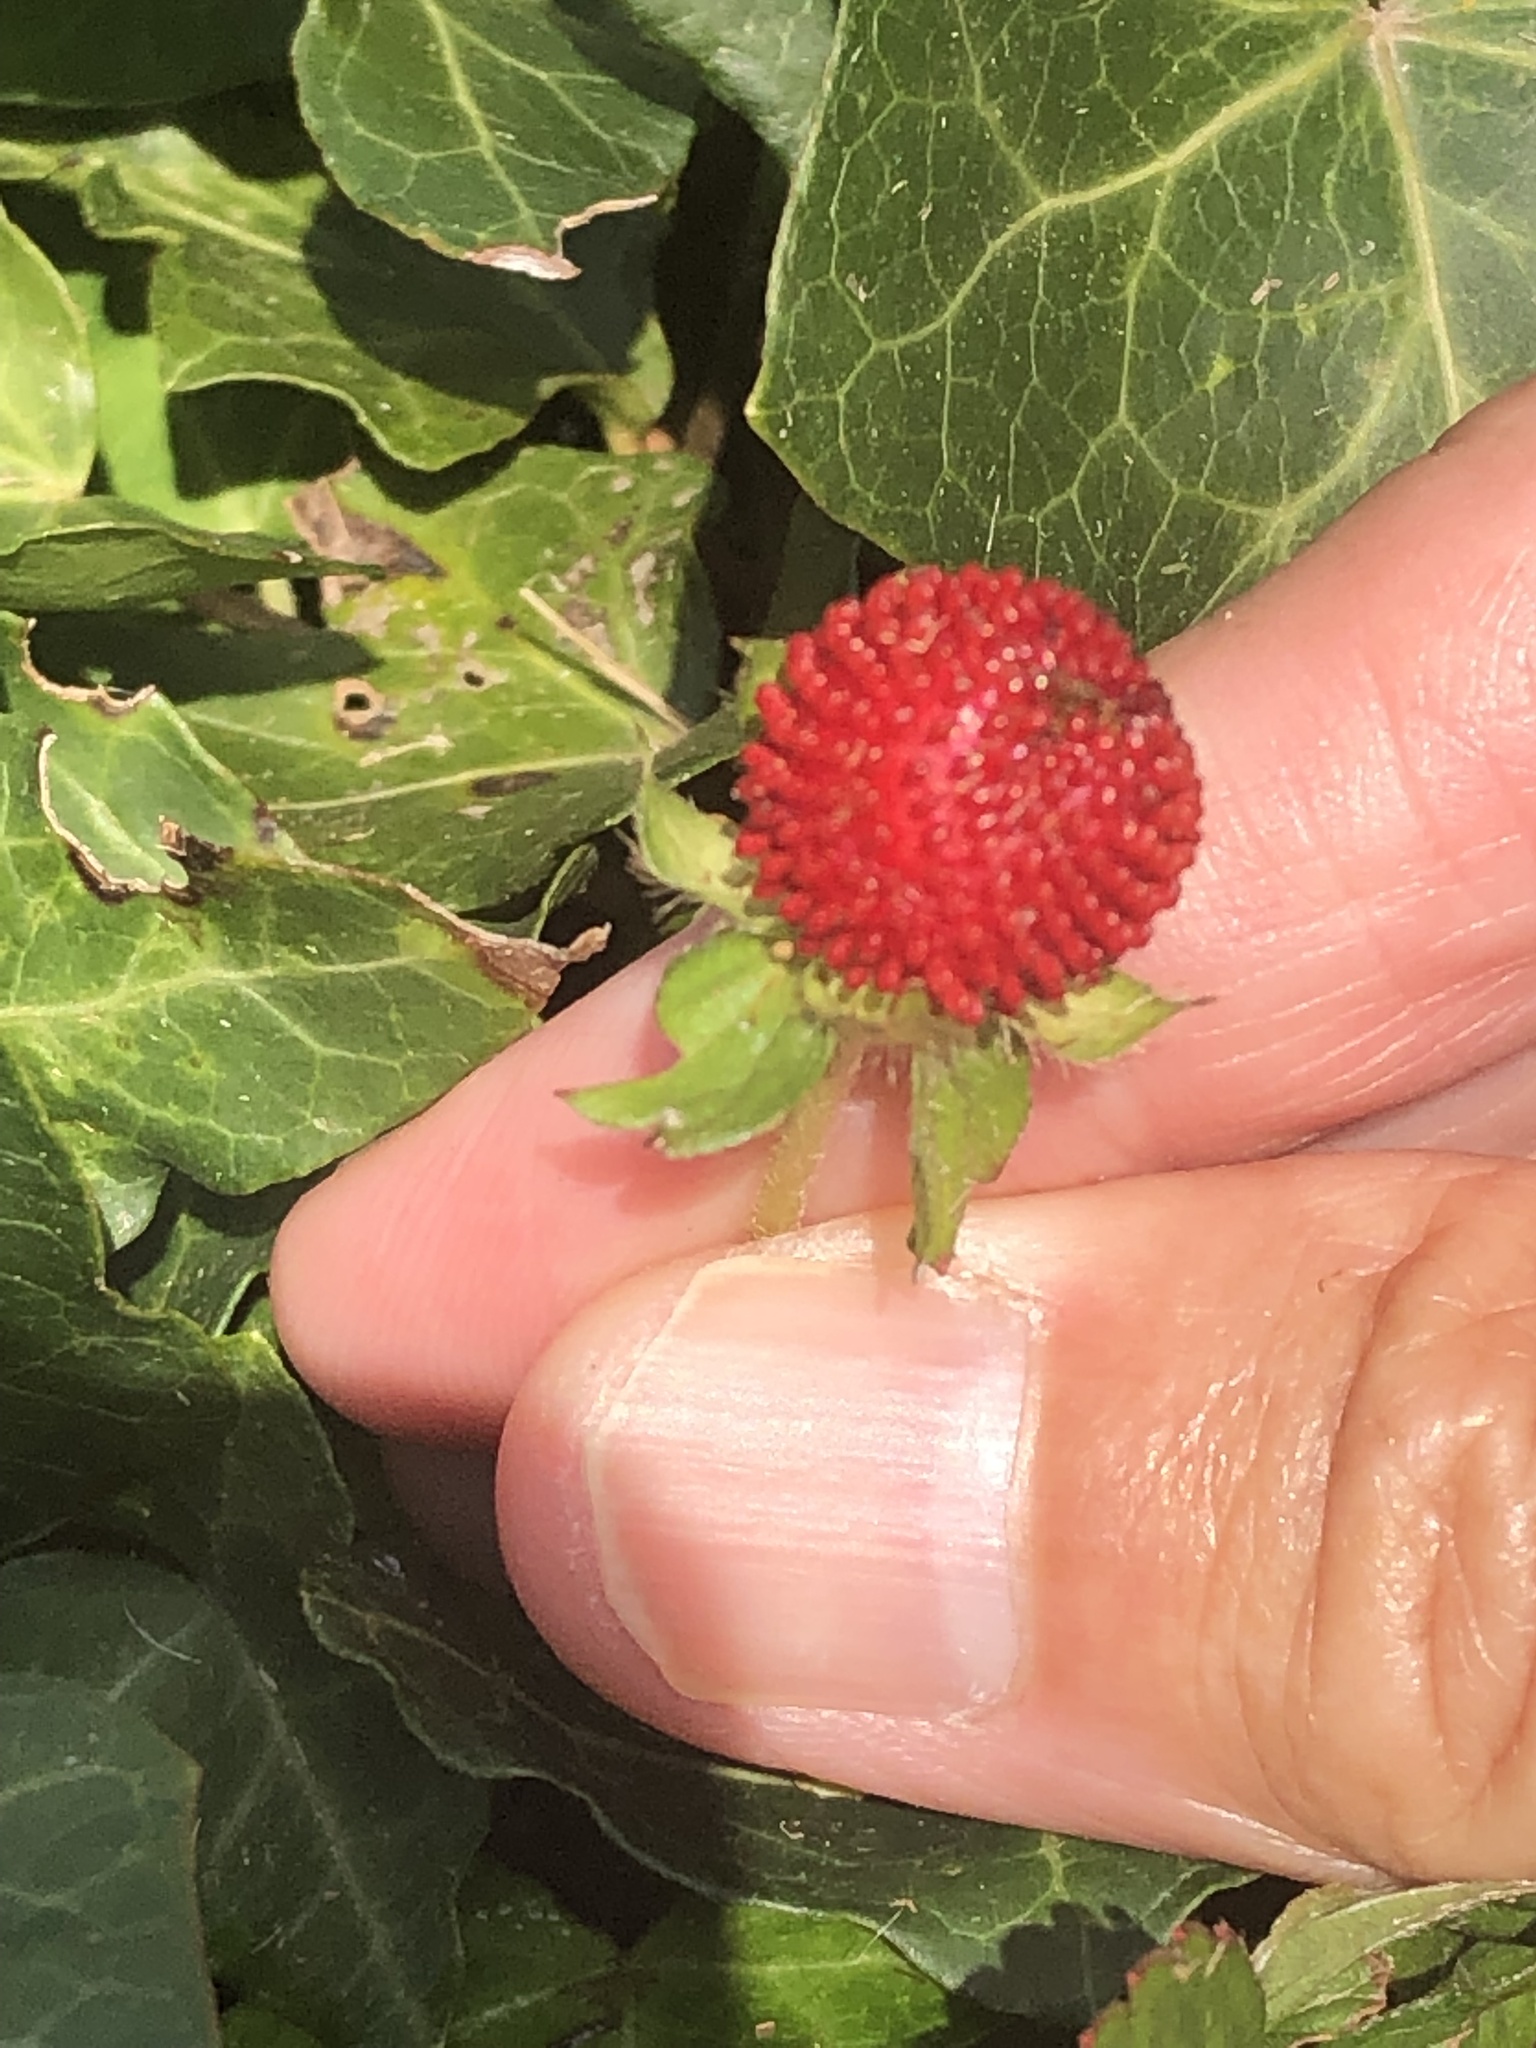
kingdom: Plantae
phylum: Tracheophyta
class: Magnoliopsida
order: Rosales
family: Rosaceae
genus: Potentilla
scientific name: Potentilla indica
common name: Yellow-flowered strawberry
